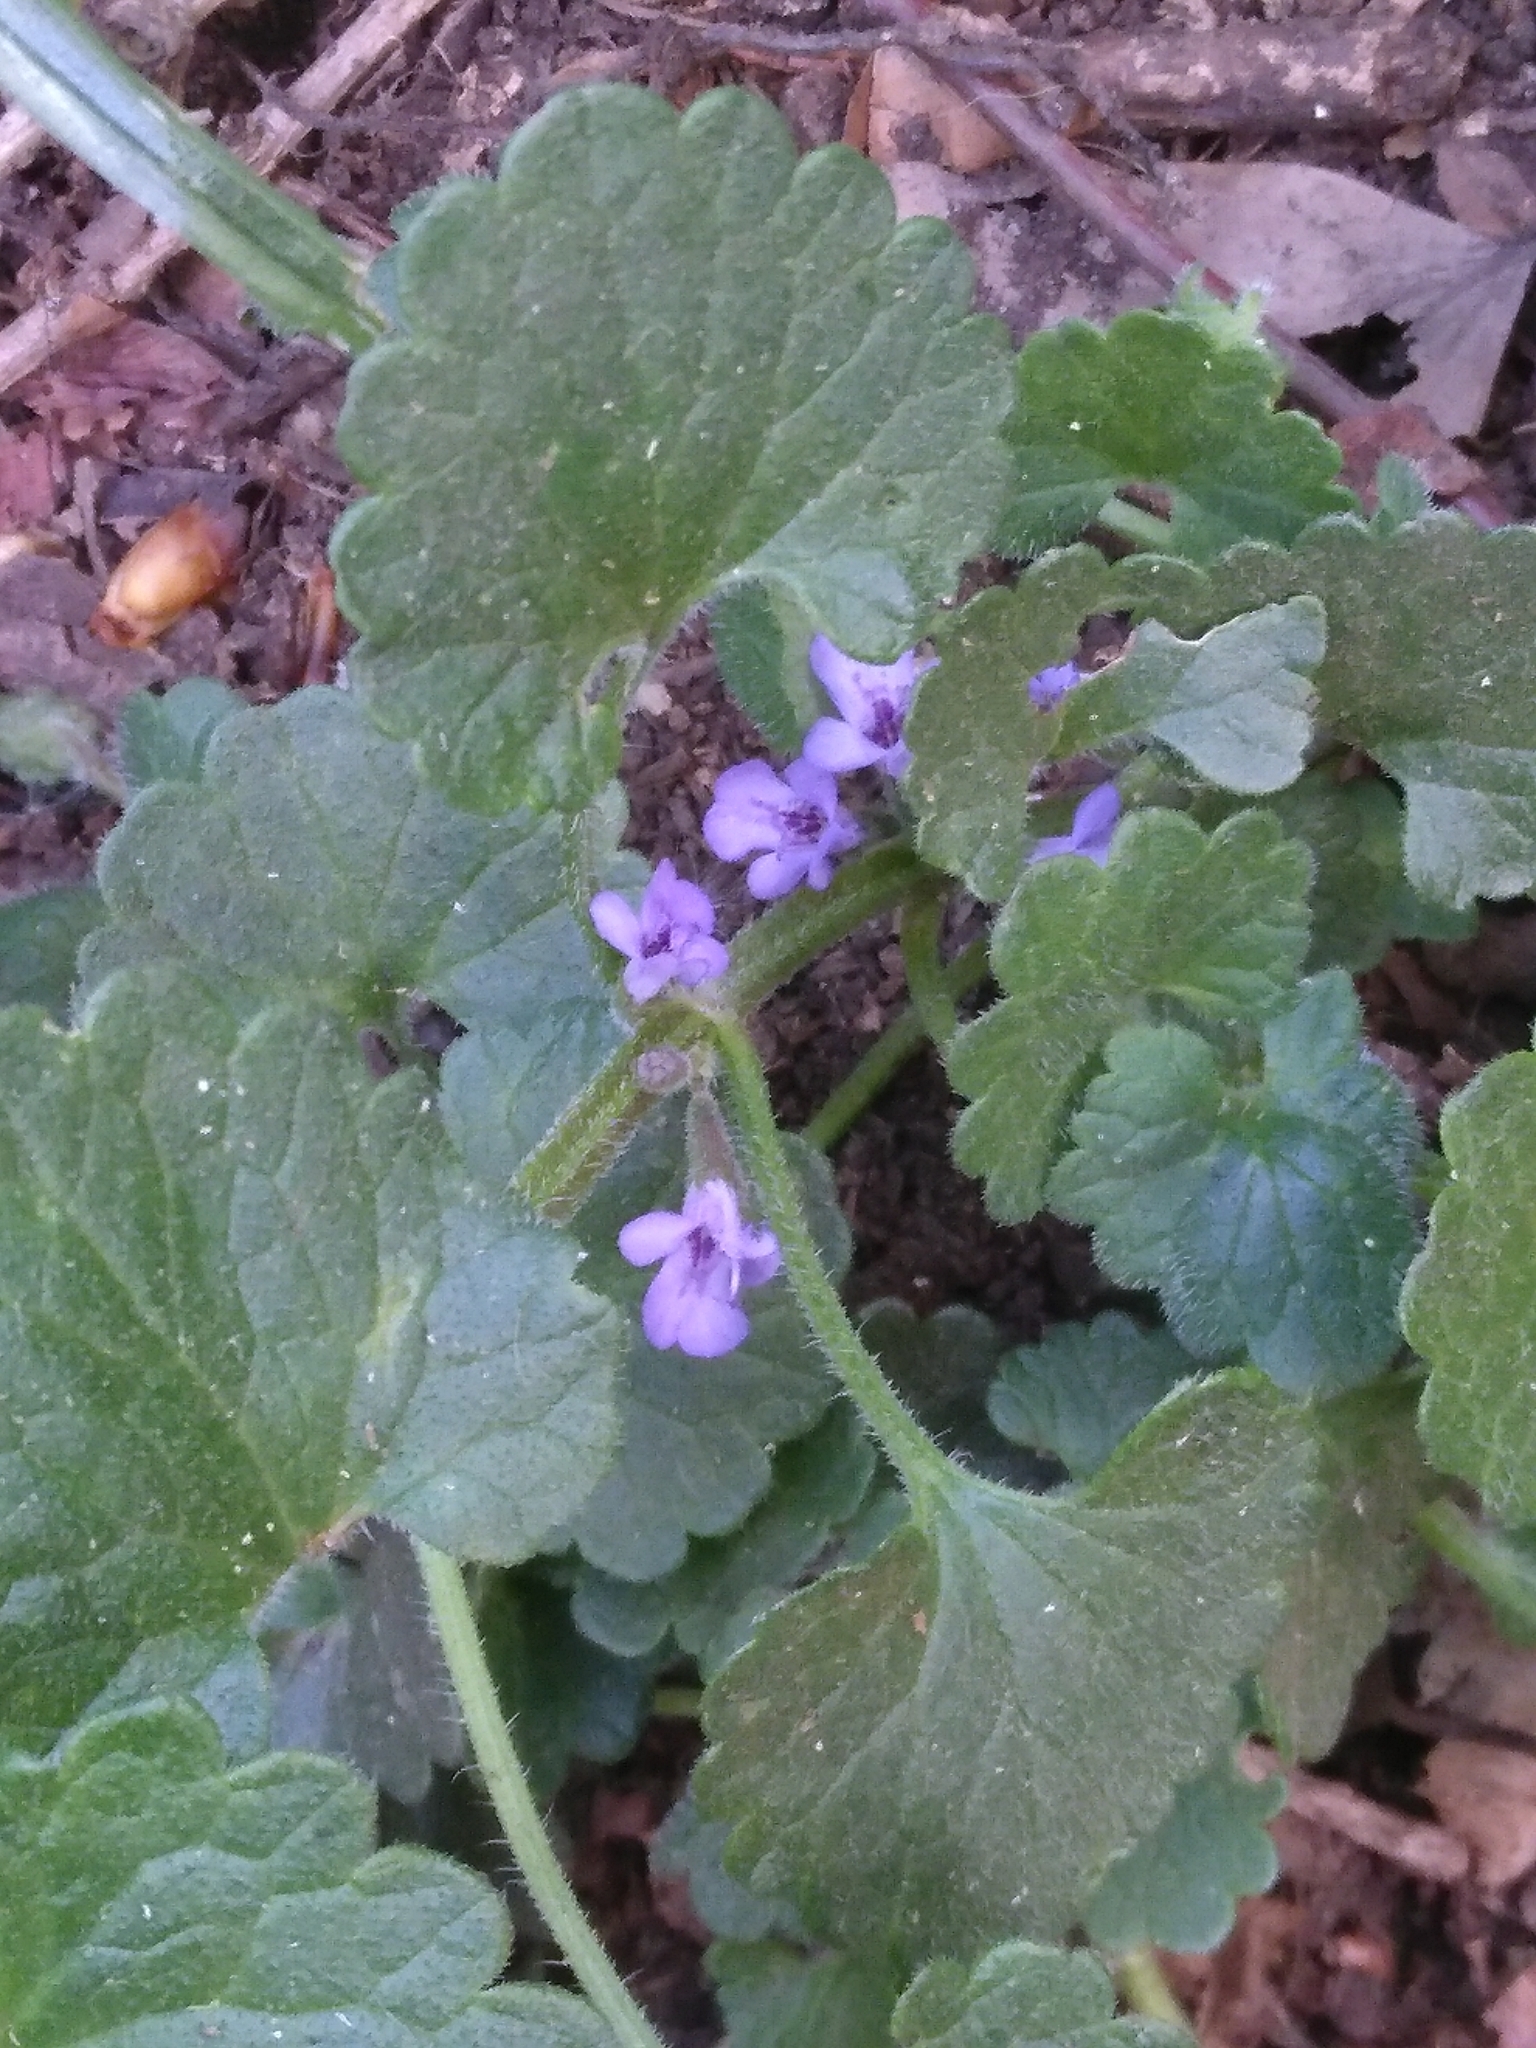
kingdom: Plantae
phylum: Tracheophyta
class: Magnoliopsida
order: Lamiales
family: Lamiaceae
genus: Glechoma
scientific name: Glechoma hederacea
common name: Ground ivy
